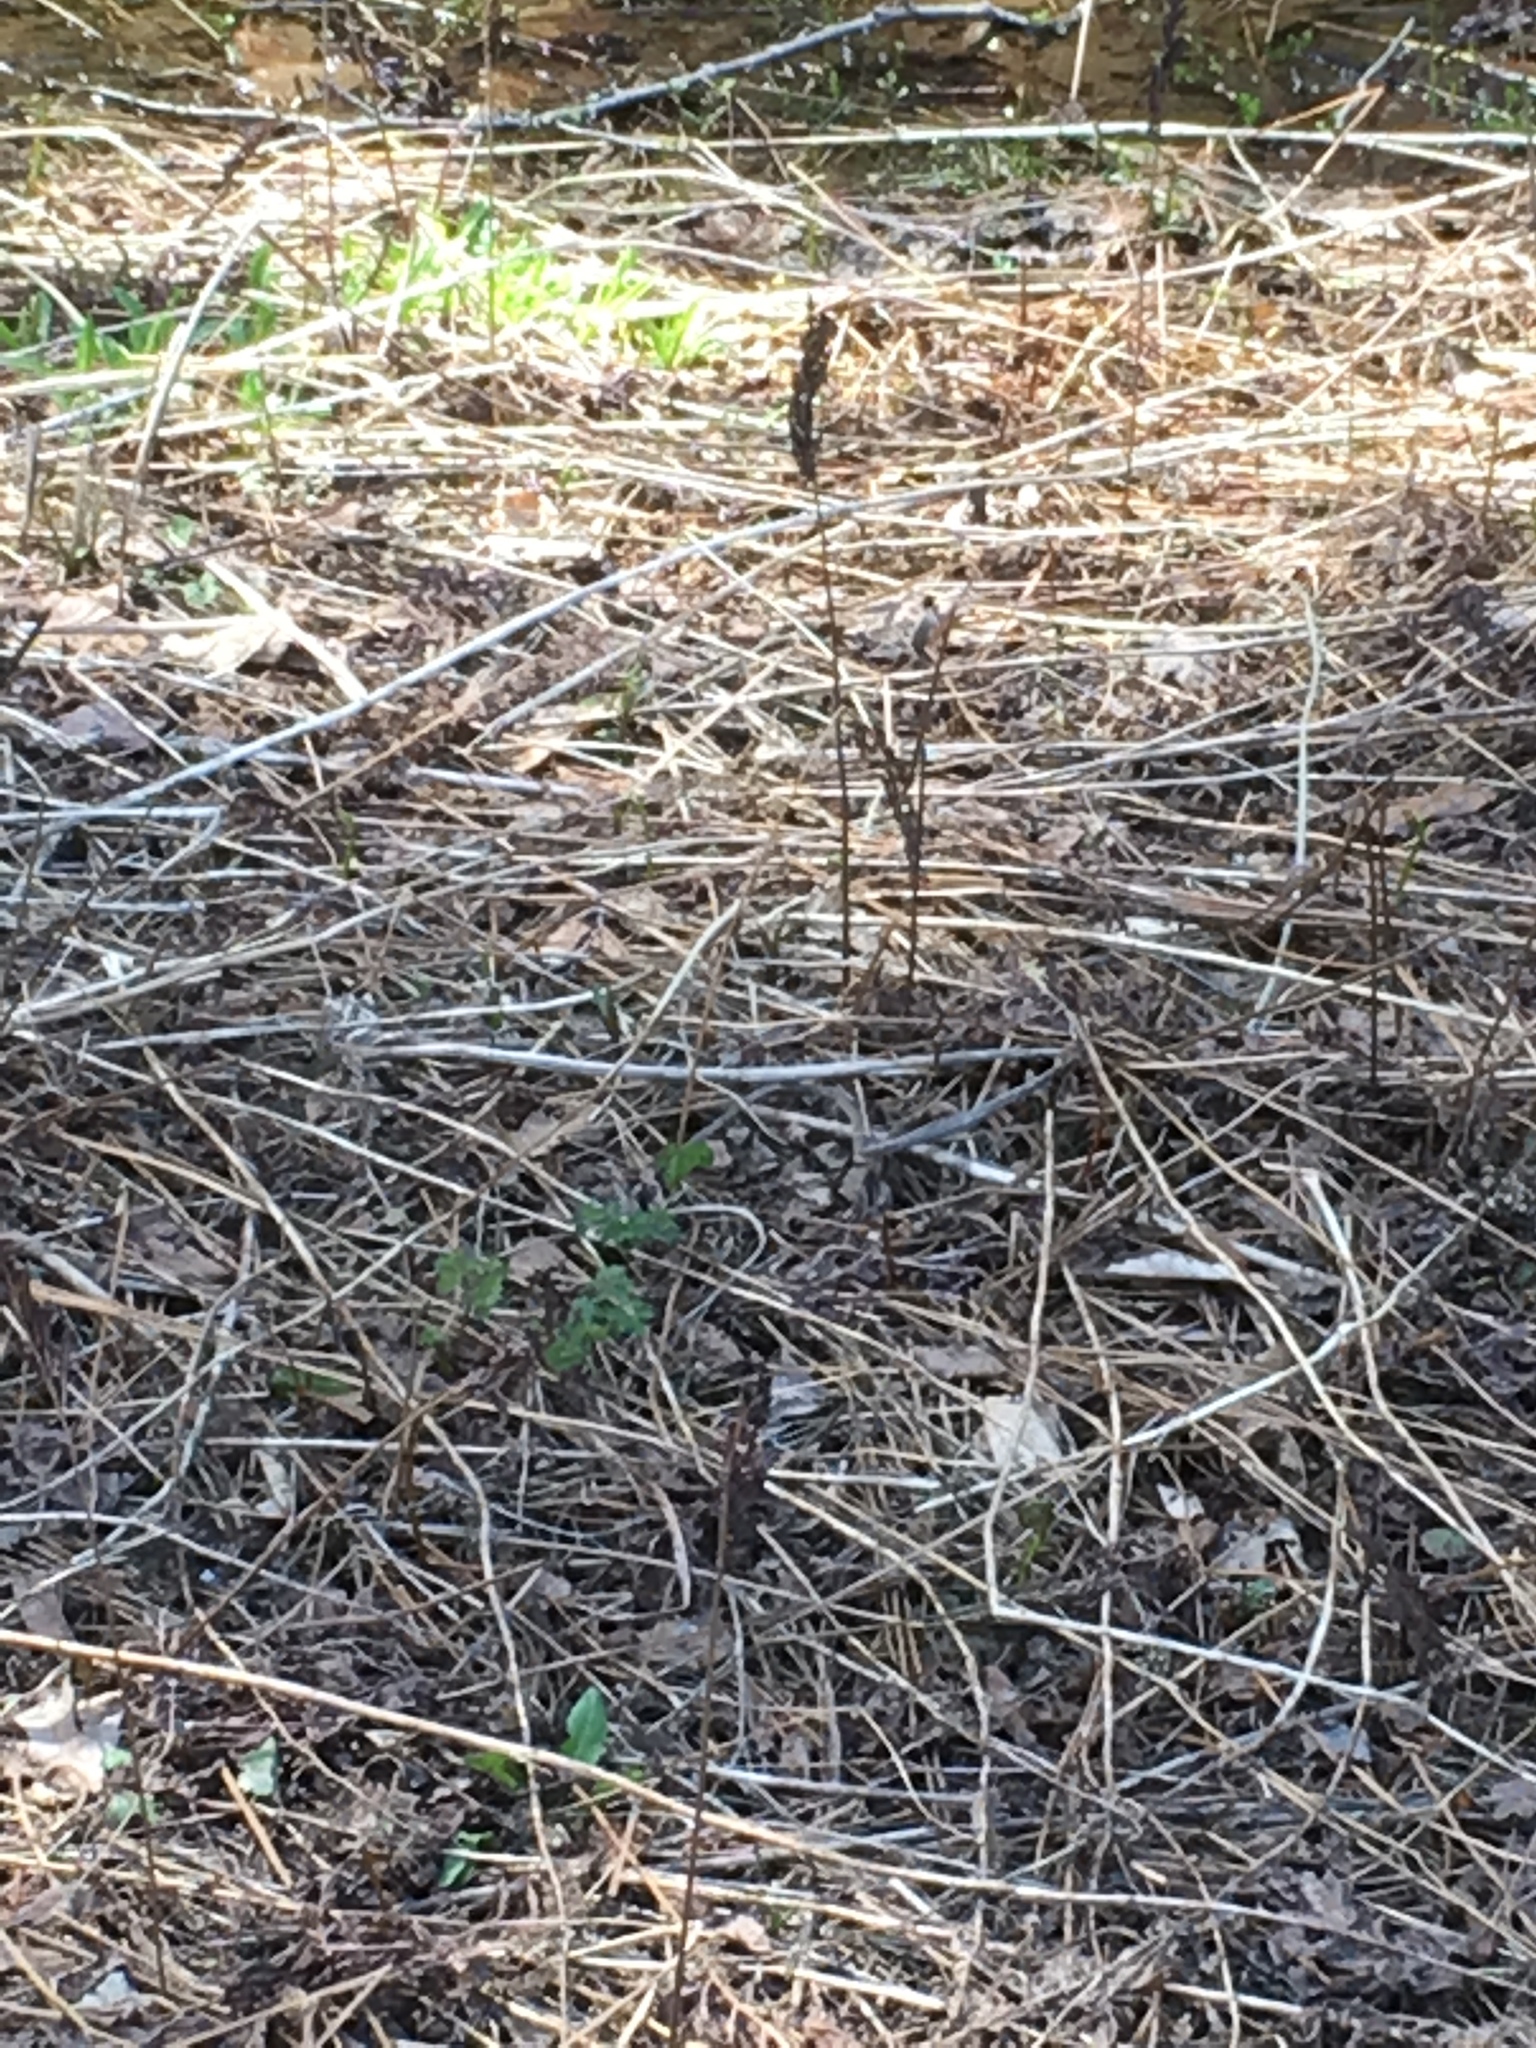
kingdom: Plantae
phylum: Tracheophyta
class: Polypodiopsida
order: Polypodiales
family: Onocleaceae
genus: Onoclea
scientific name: Onoclea sensibilis
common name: Sensitive fern
